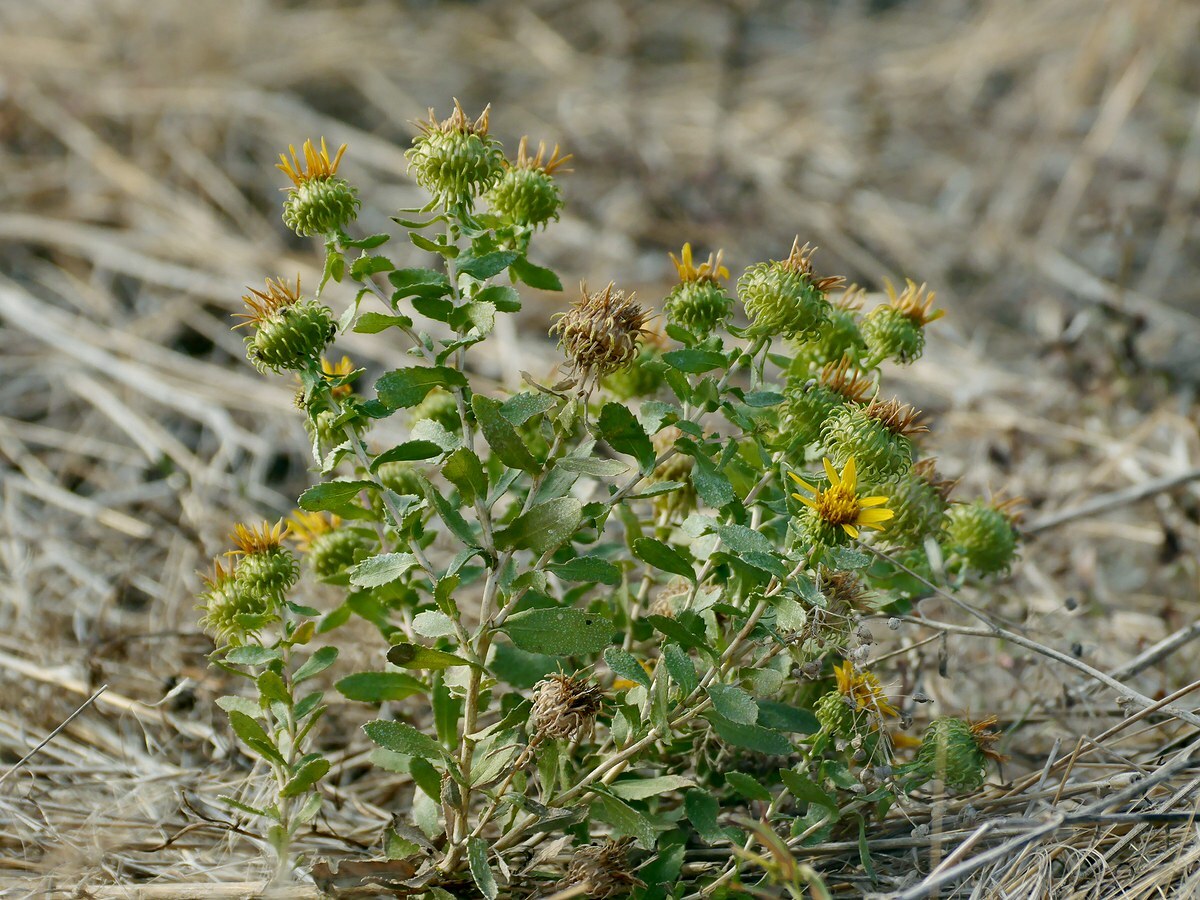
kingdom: Plantae
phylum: Tracheophyta
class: Magnoliopsida
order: Asterales
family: Asteraceae
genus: Grindelia
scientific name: Grindelia squarrosa
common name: Curly-cup gumweed
